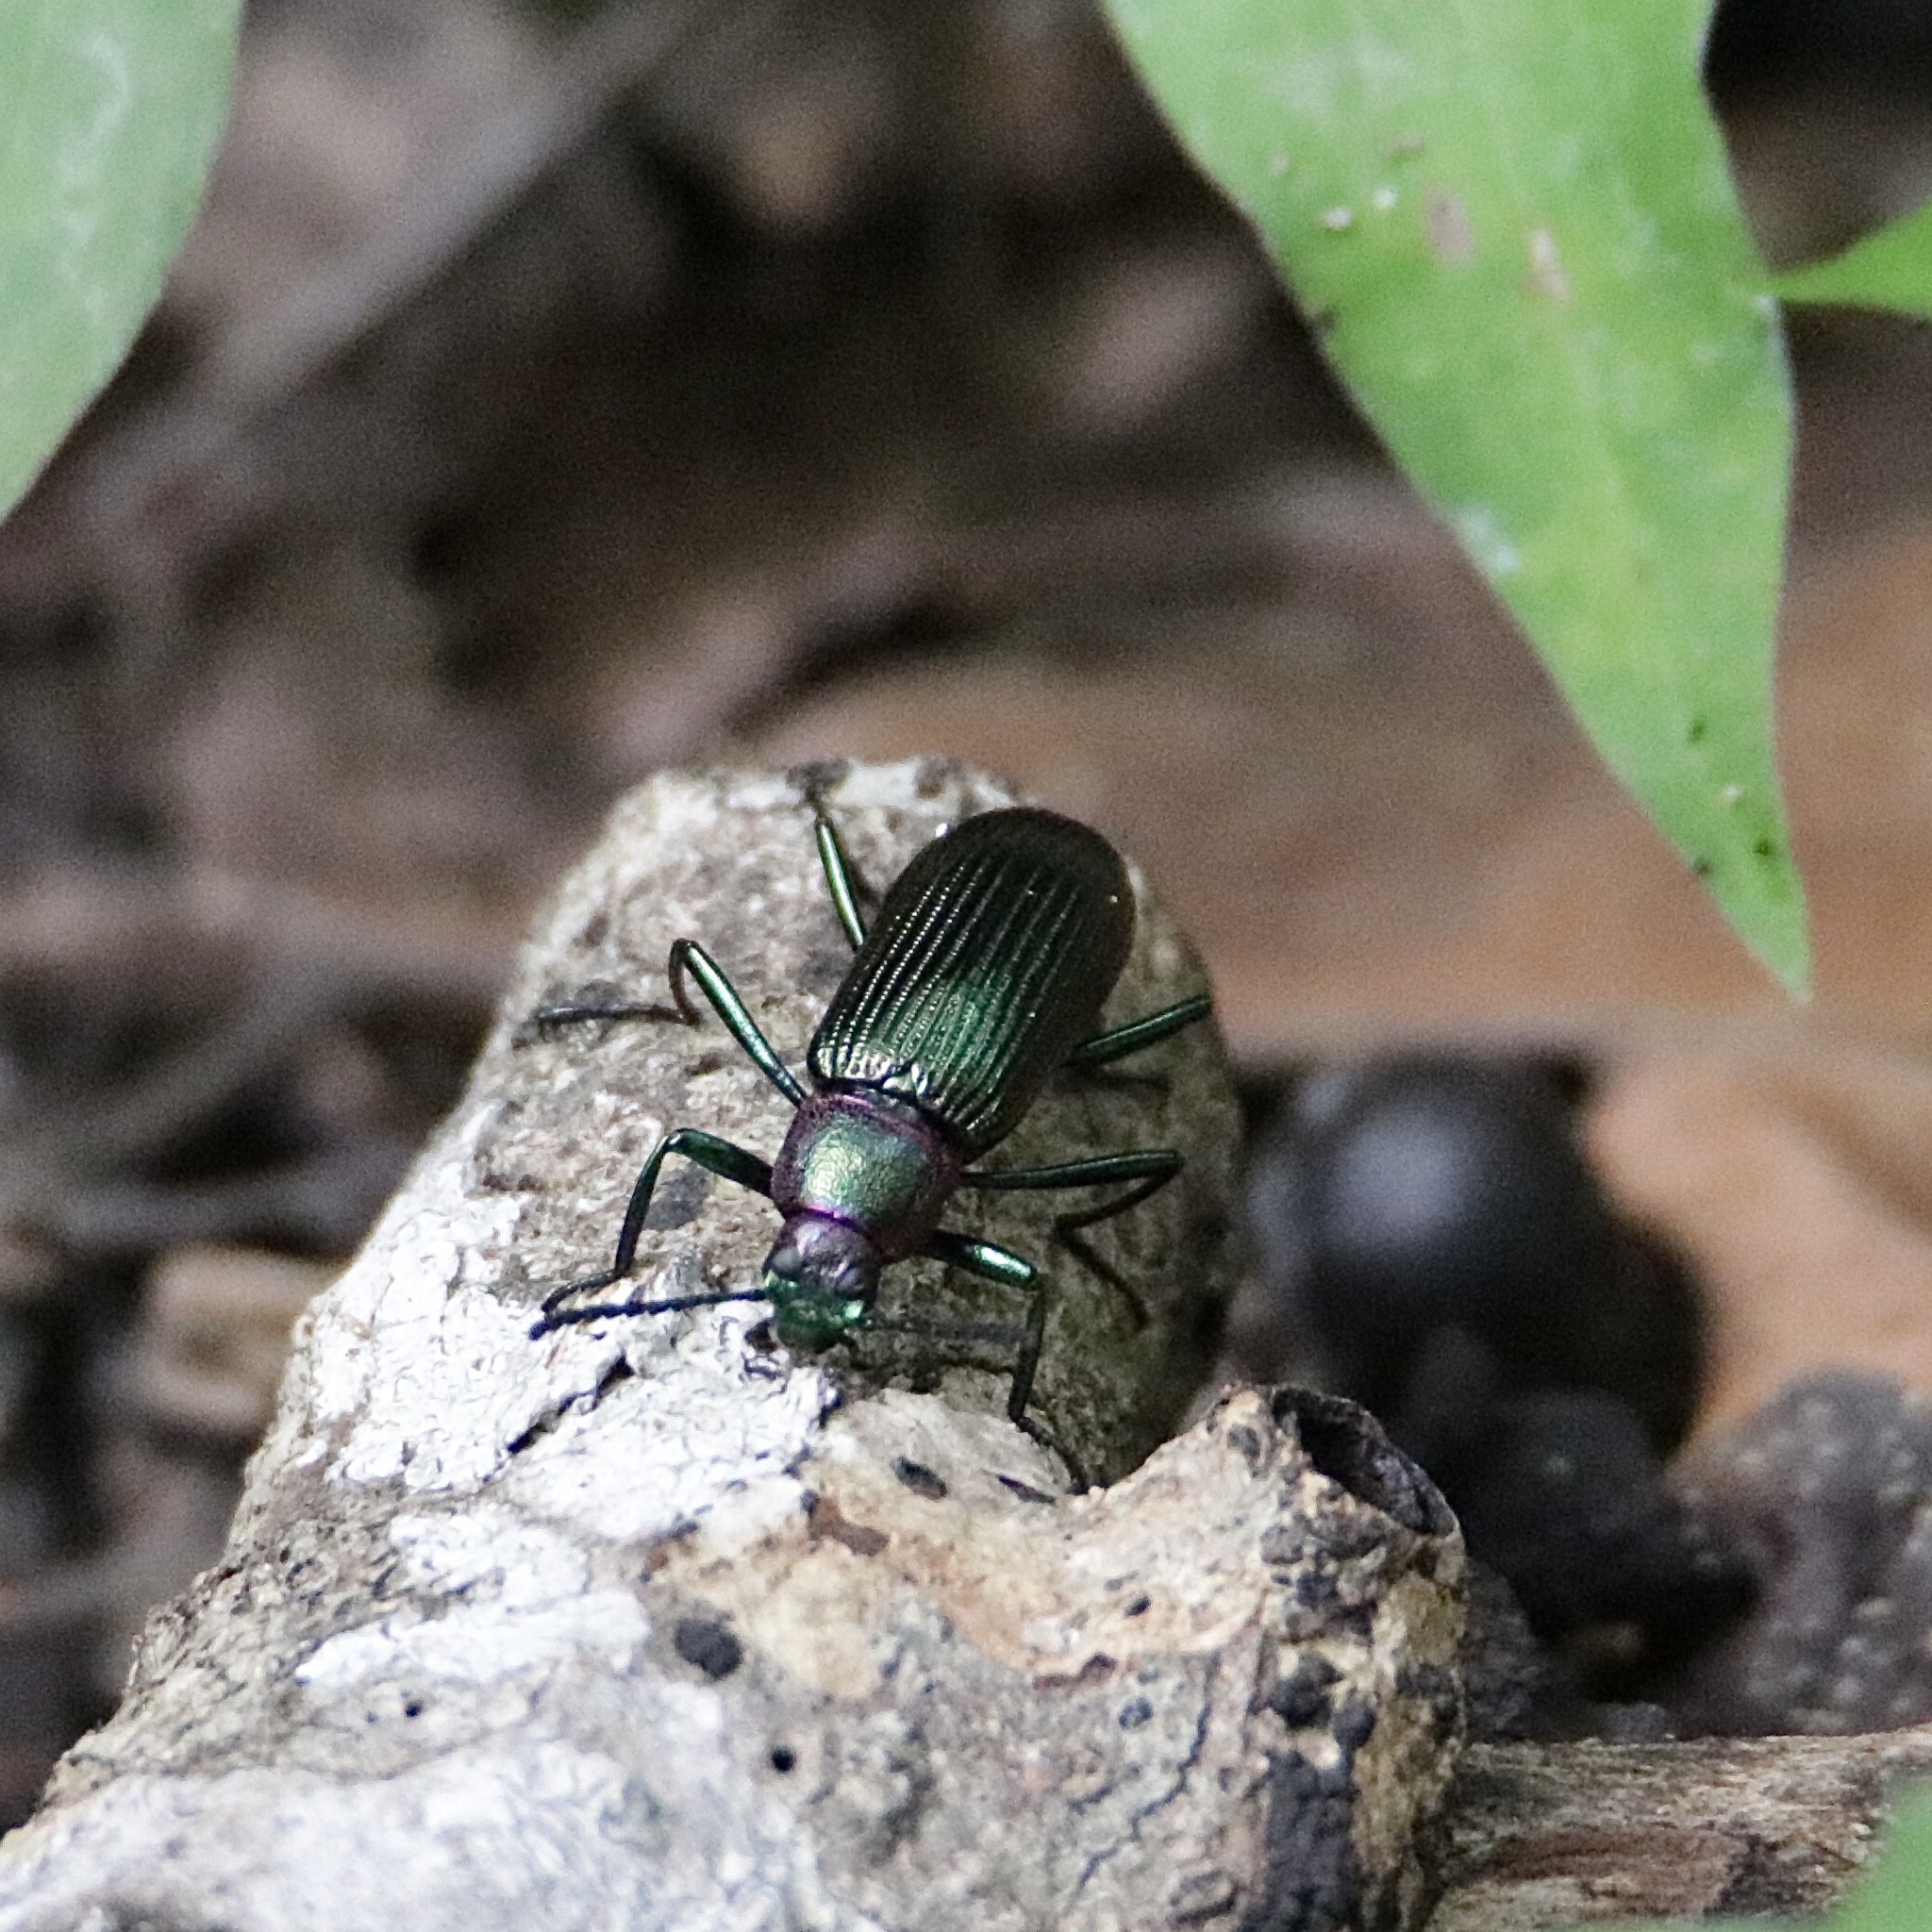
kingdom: Animalia
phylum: Arthropoda
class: Insecta
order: Coleoptera
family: Tenebrionidae
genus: Strongylium
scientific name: Strongylium auratum
